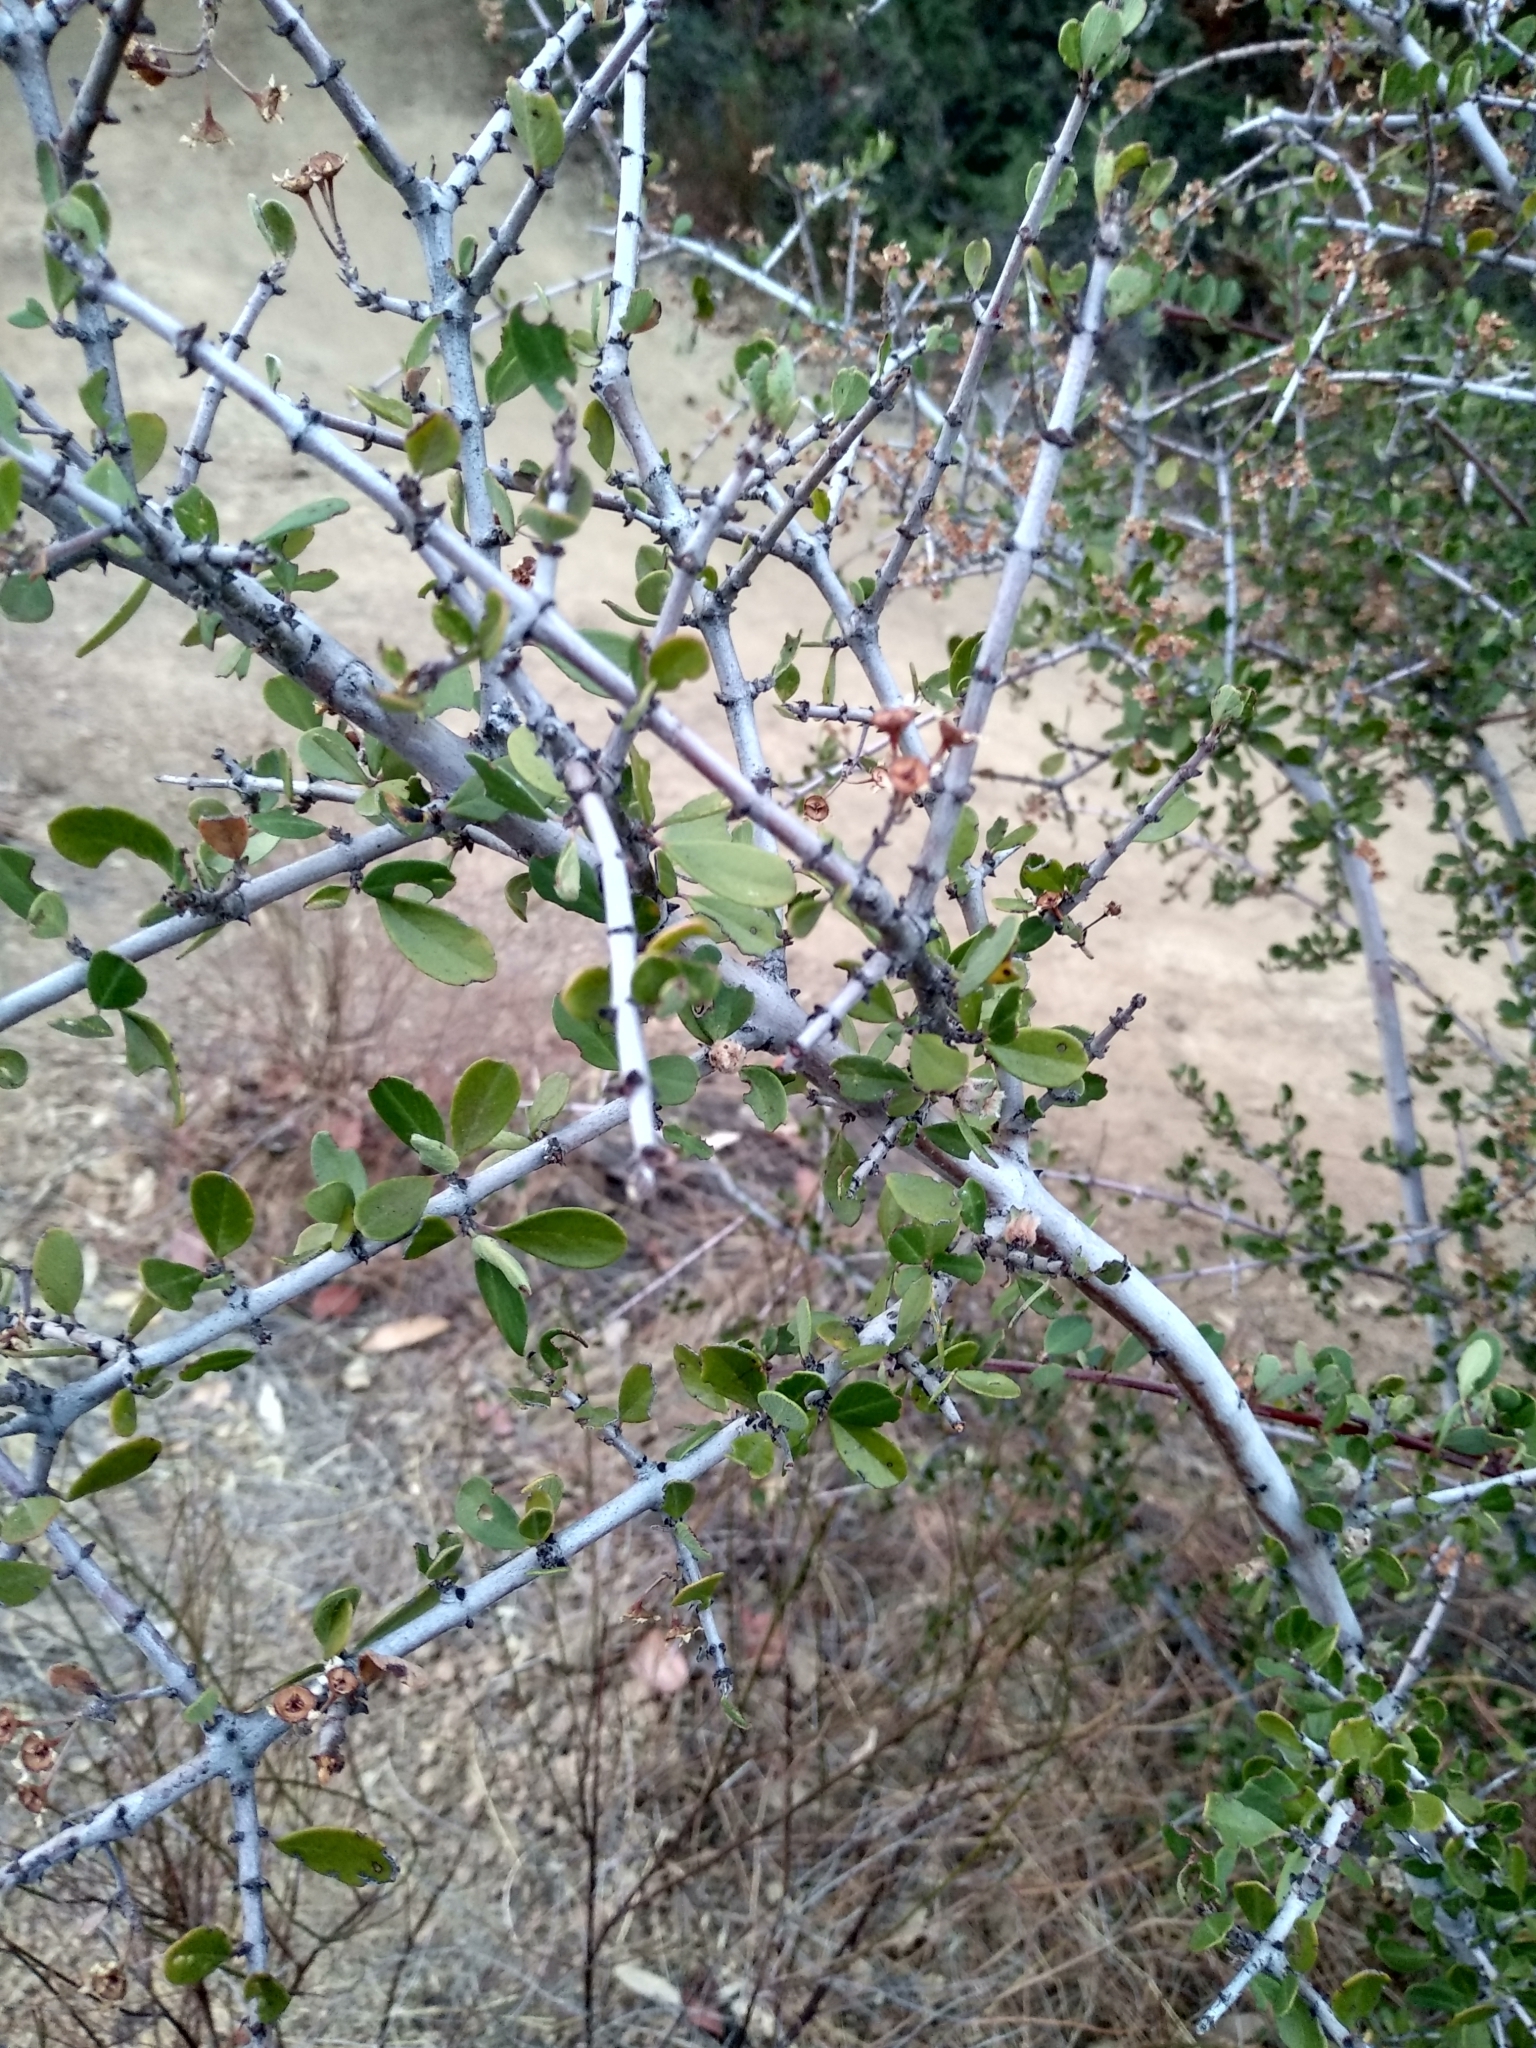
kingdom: Plantae
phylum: Tracheophyta
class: Magnoliopsida
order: Rosales
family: Rhamnaceae
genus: Ceanothus
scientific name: Ceanothus cuneatus
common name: Cuneate ceanothus
